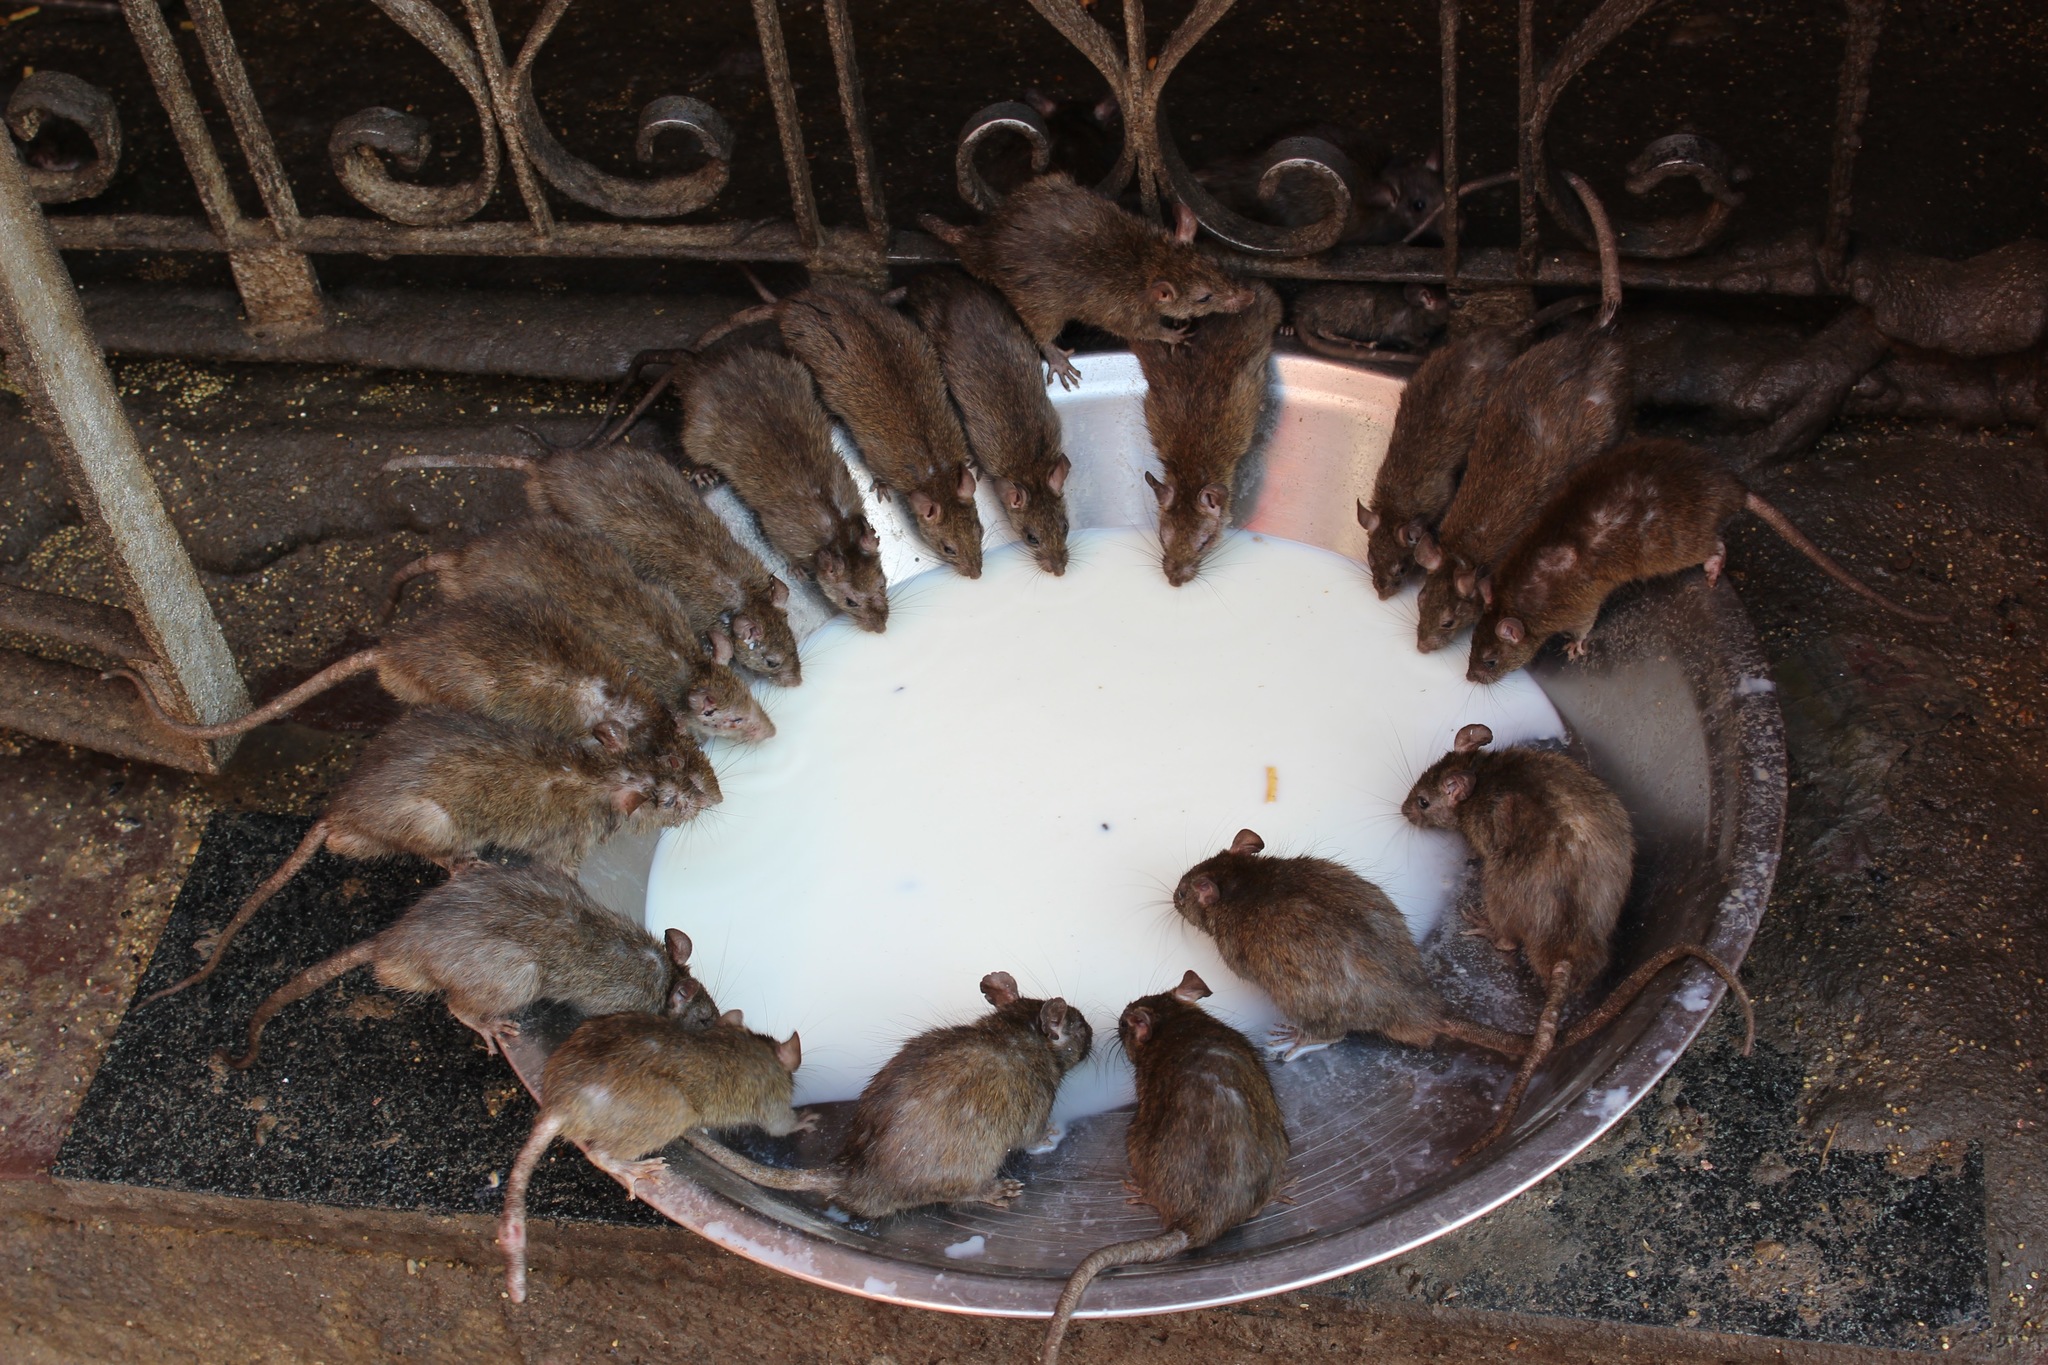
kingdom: Animalia
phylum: Chordata
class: Mammalia
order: Rodentia
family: Muridae
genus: Rattus
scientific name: Rattus rattus
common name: Black rat
